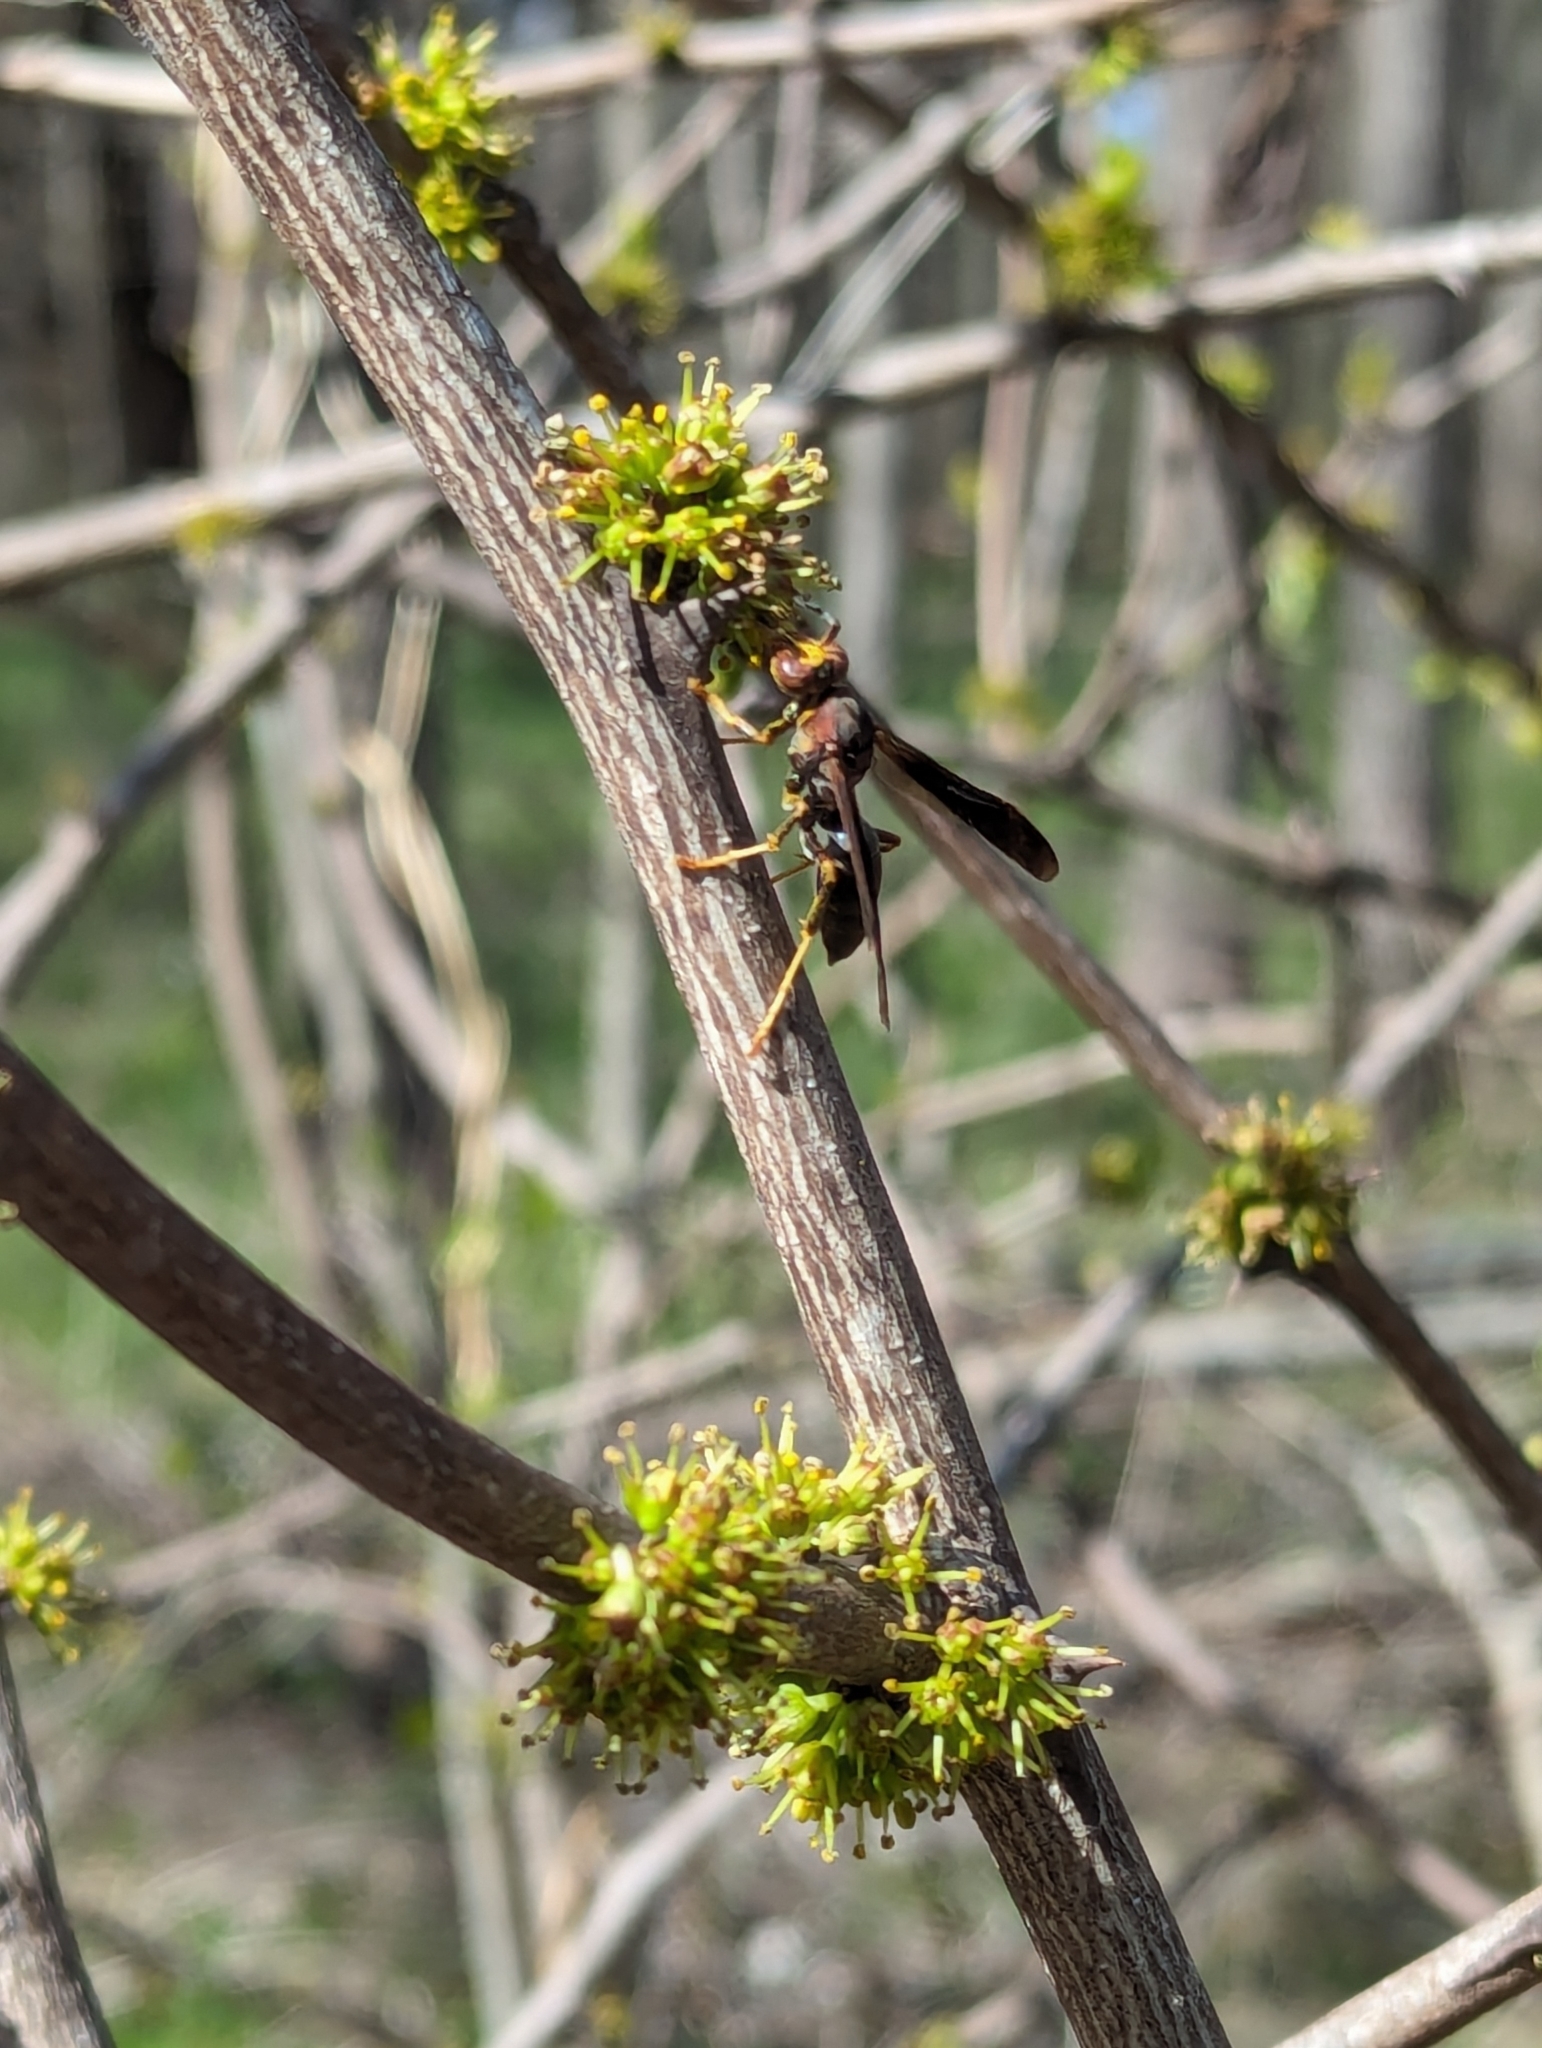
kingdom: Animalia
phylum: Arthropoda
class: Insecta
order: Hymenoptera
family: Eumenidae
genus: Polistes
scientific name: Polistes metricus
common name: Metric paper wasp
